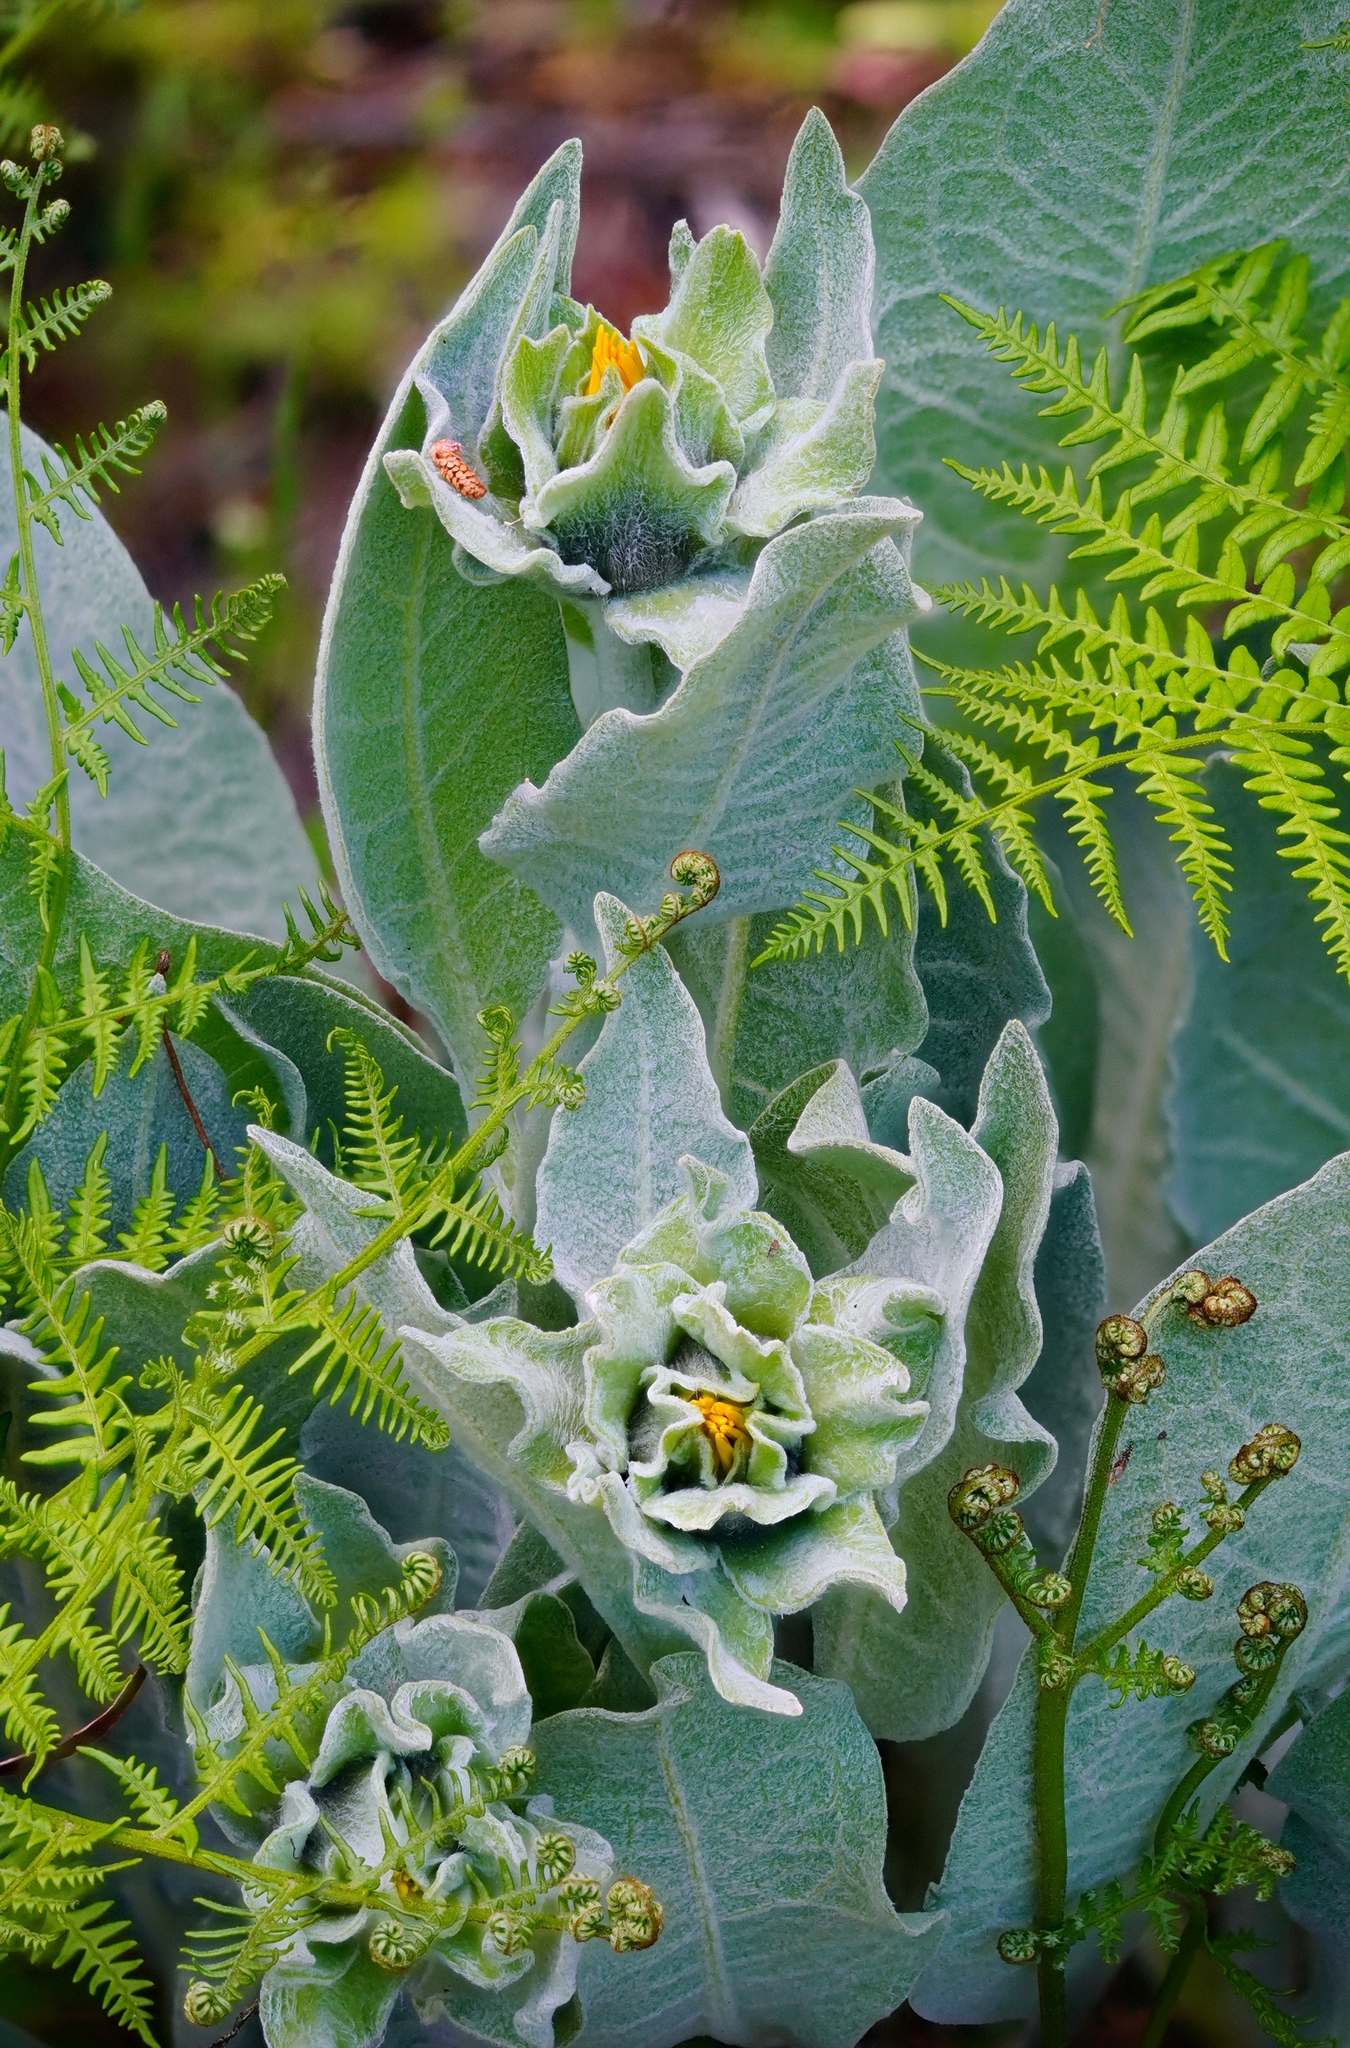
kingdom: Plantae
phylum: Tracheophyta
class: Magnoliopsida
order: Asterales
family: Asteraceae
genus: Wyethia
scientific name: Wyethia helenioides
